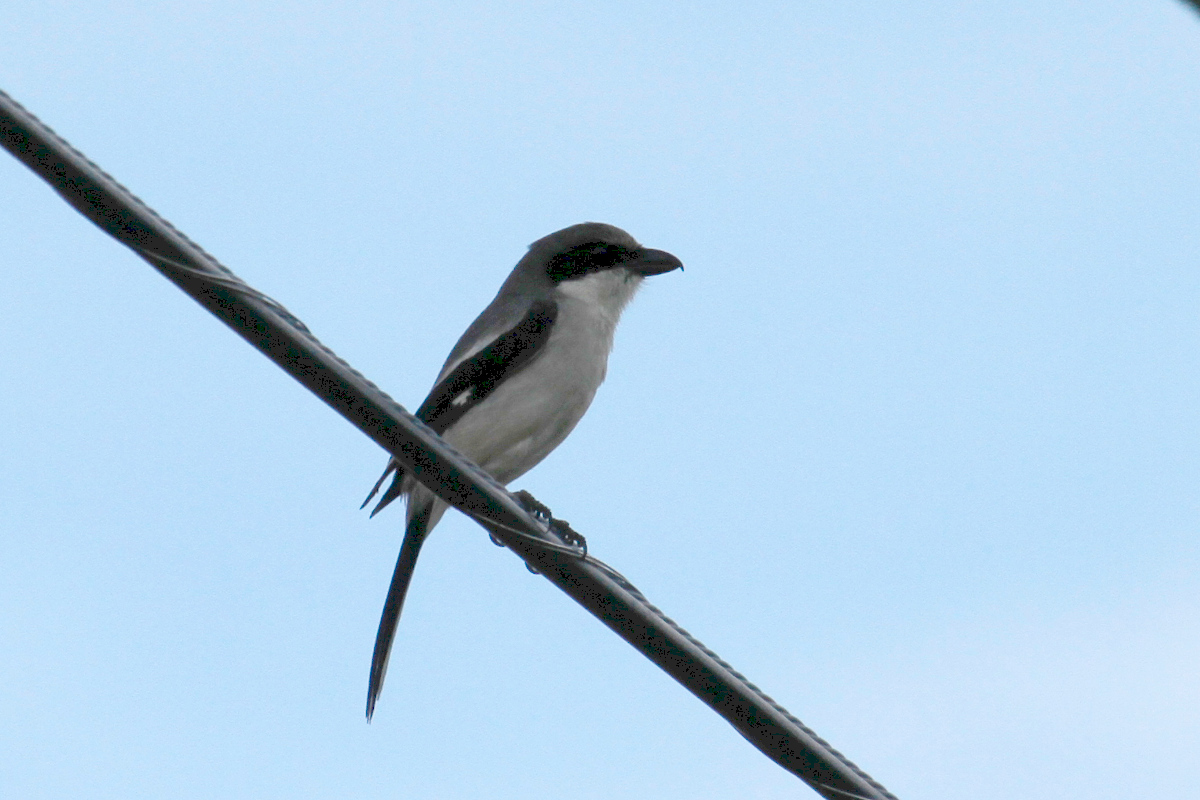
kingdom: Animalia
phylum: Chordata
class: Aves
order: Passeriformes
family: Laniidae
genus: Lanius
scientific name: Lanius ludovicianus
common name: Loggerhead shrike
